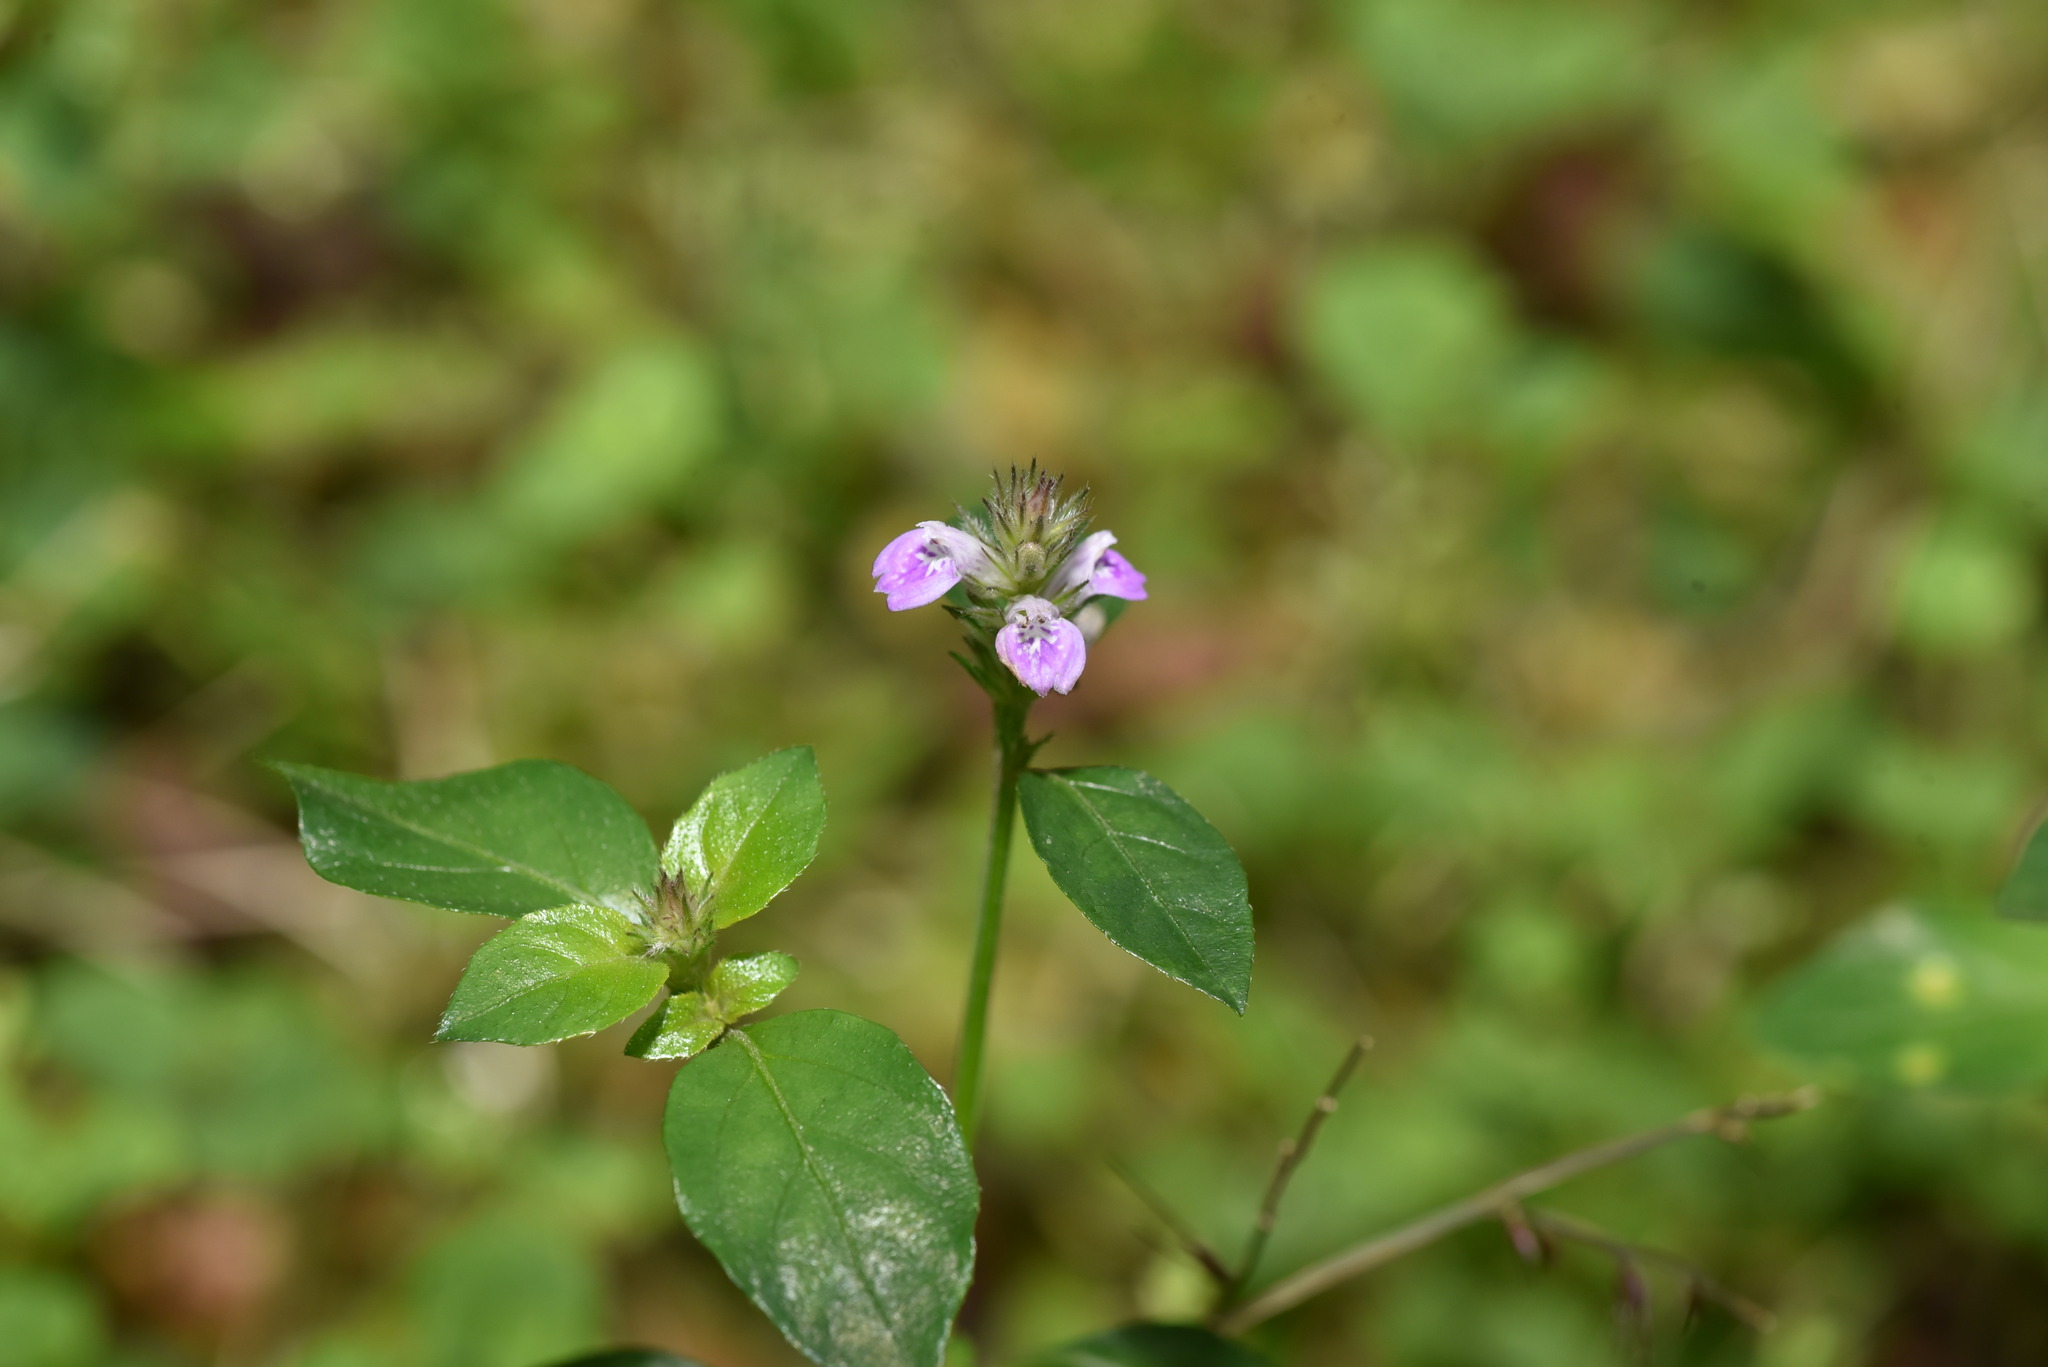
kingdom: Plantae
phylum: Tracheophyta
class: Magnoliopsida
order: Lamiales
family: Acanthaceae
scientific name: Acanthaceae
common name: Acanthaceae
